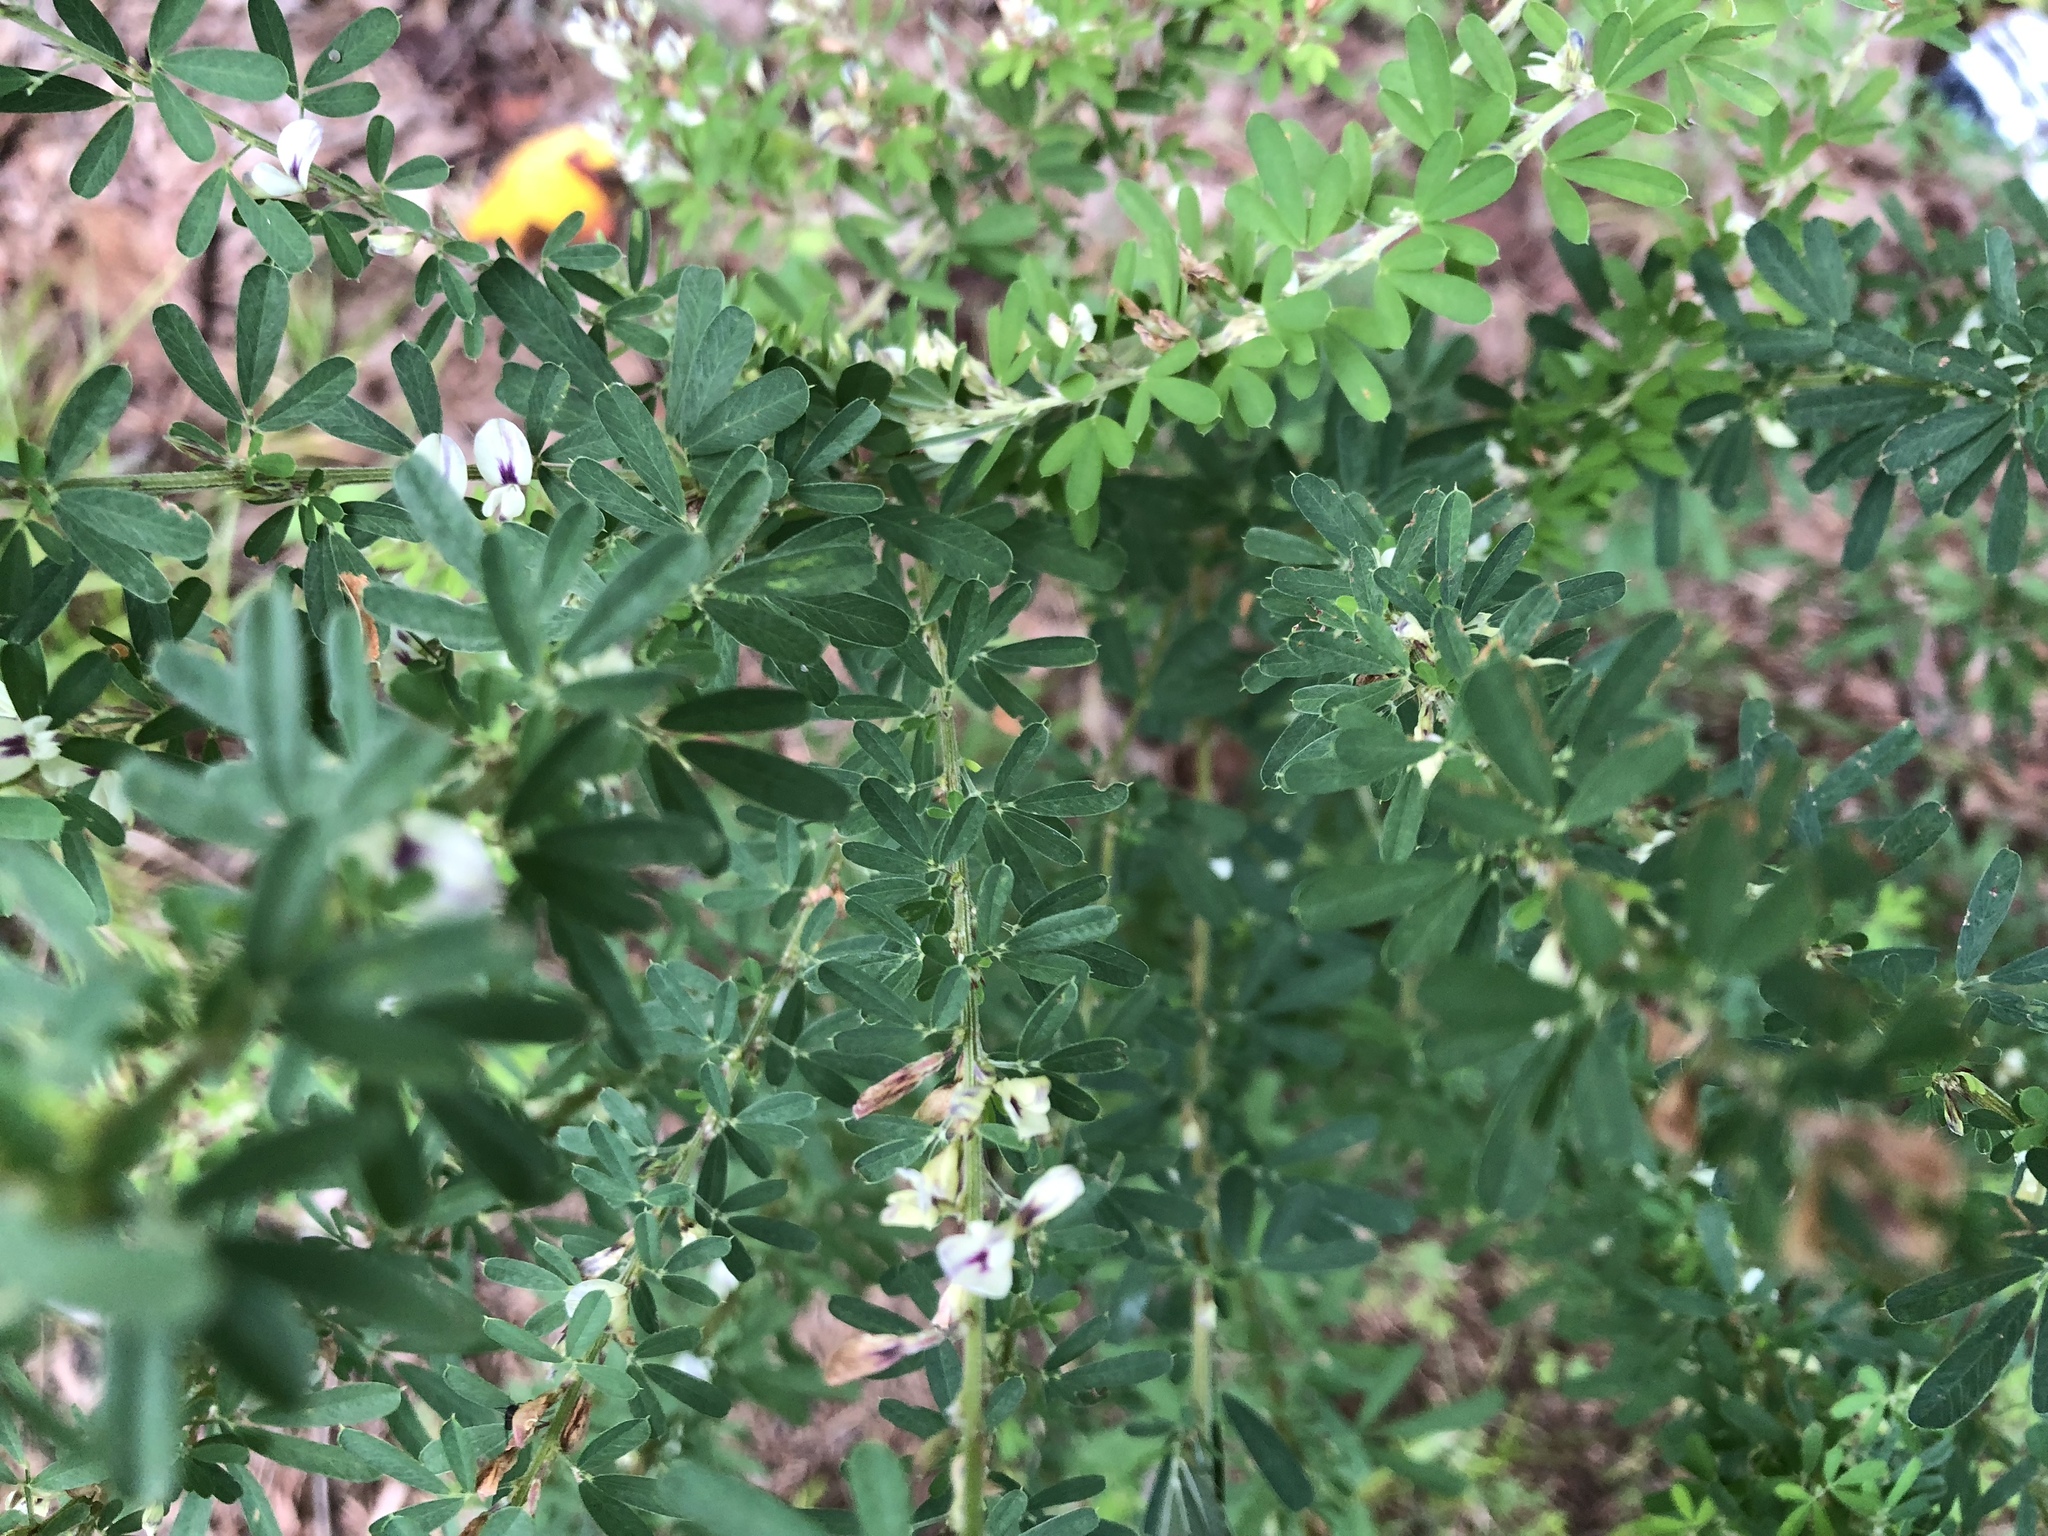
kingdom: Plantae
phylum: Tracheophyta
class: Magnoliopsida
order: Fabales
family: Fabaceae
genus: Lespedeza
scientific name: Lespedeza cuneata
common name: Chinese bush-clover
